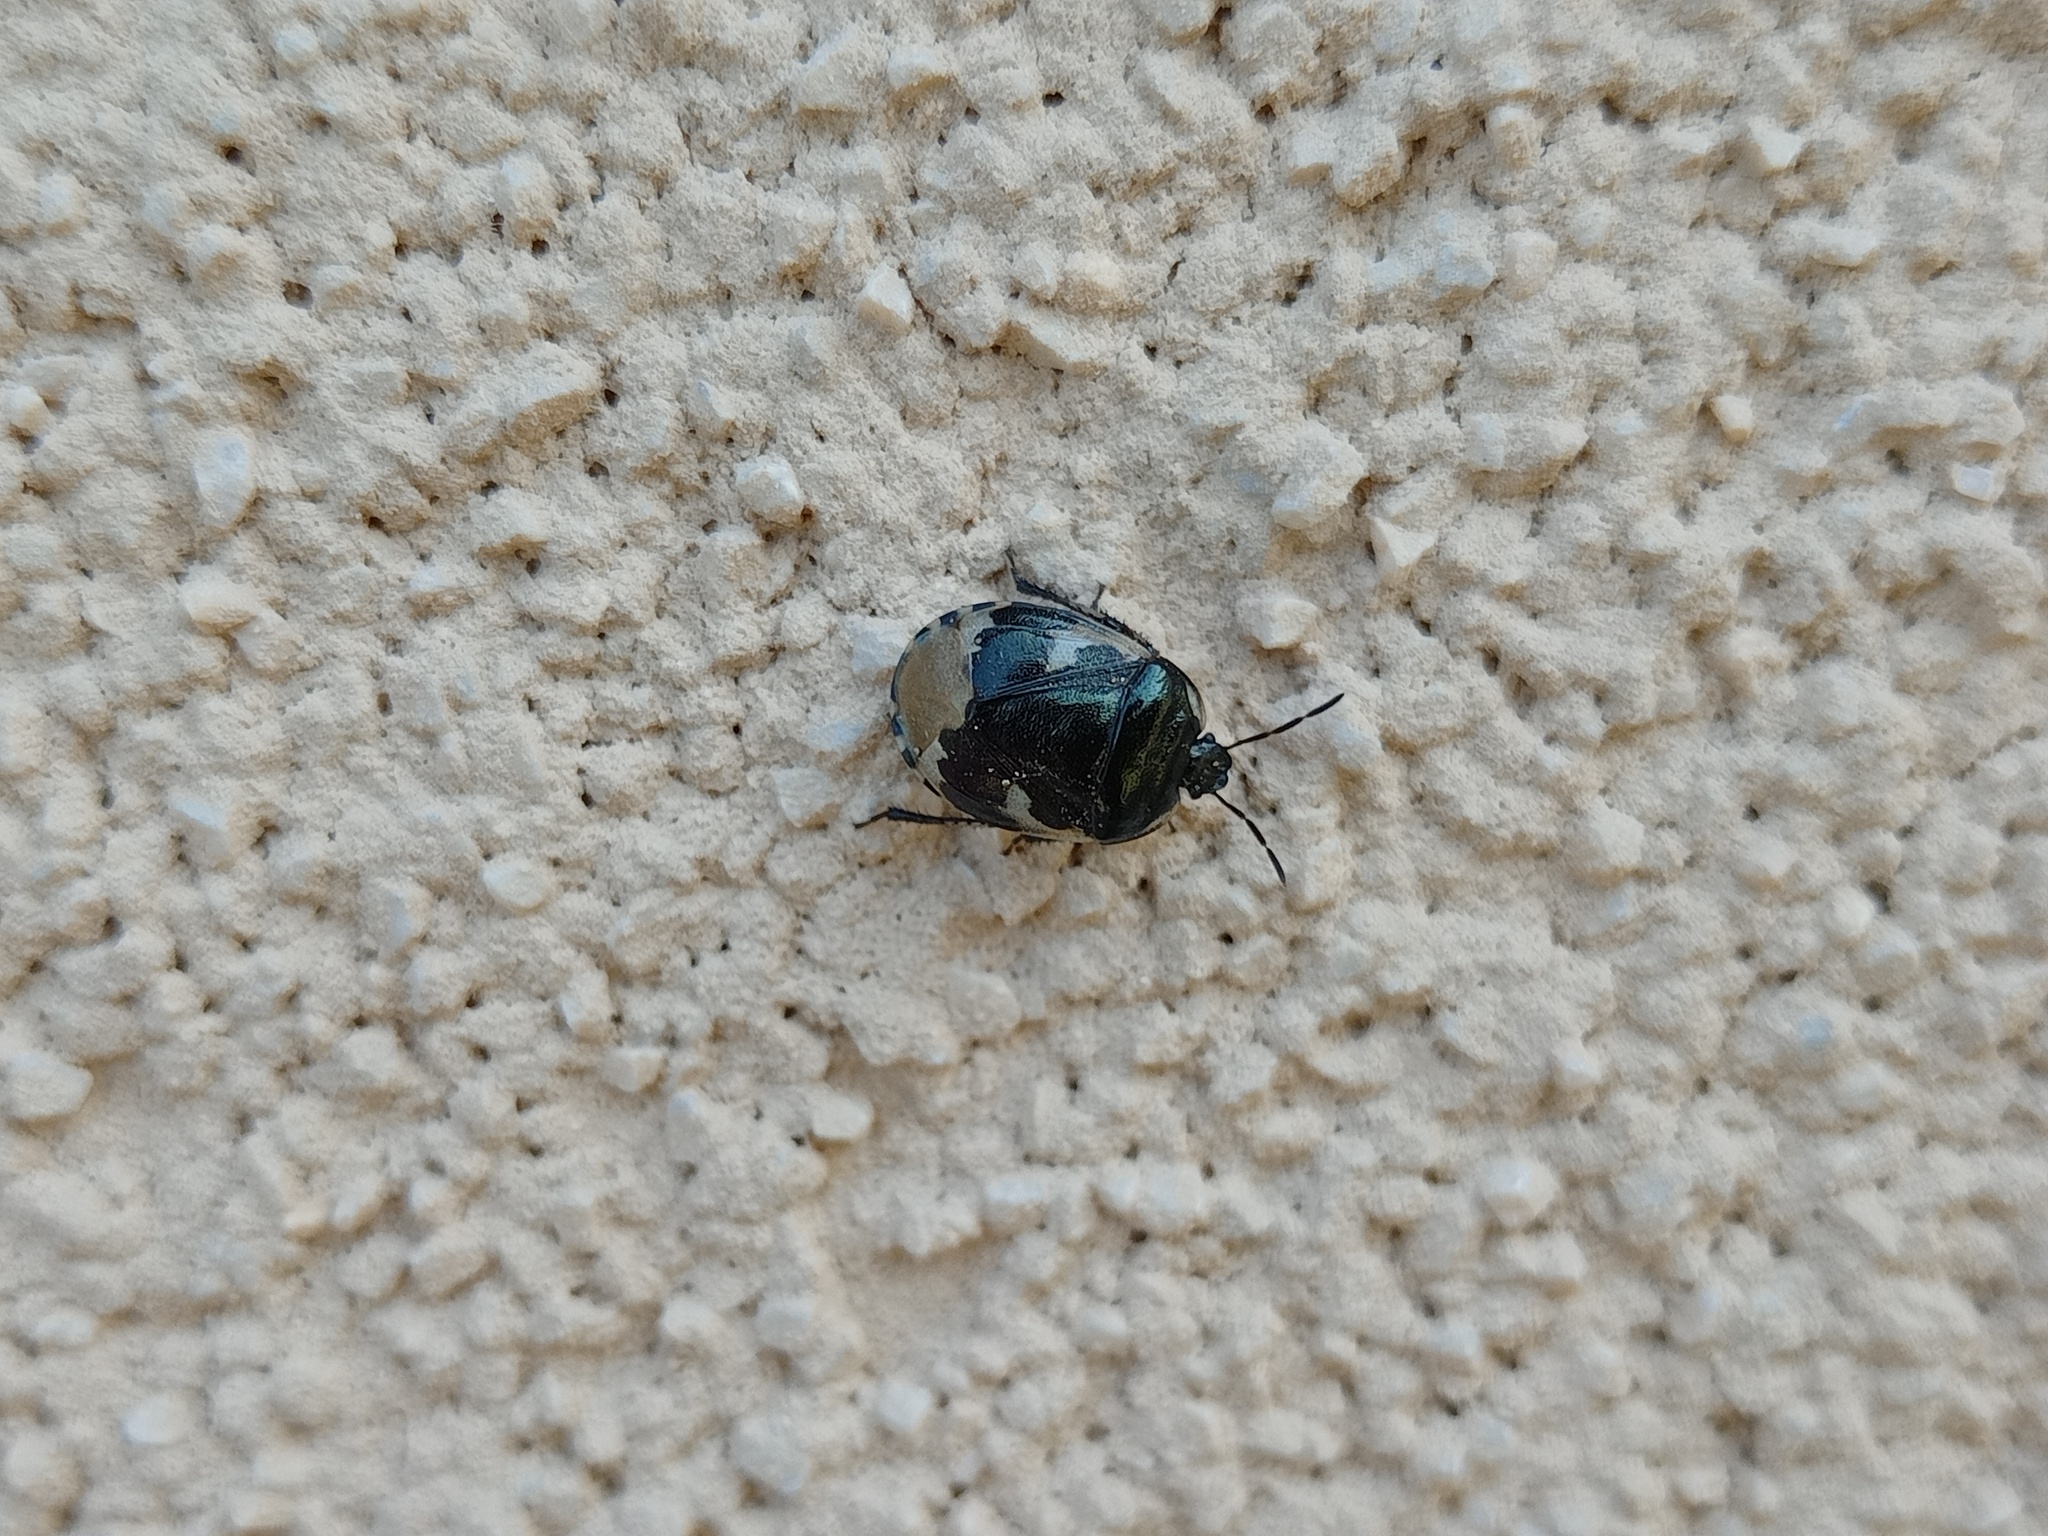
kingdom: Animalia
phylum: Arthropoda
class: Insecta
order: Hemiptera
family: Cydnidae
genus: Tritomegas
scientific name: Tritomegas bicolor
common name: Pied shieldbug
